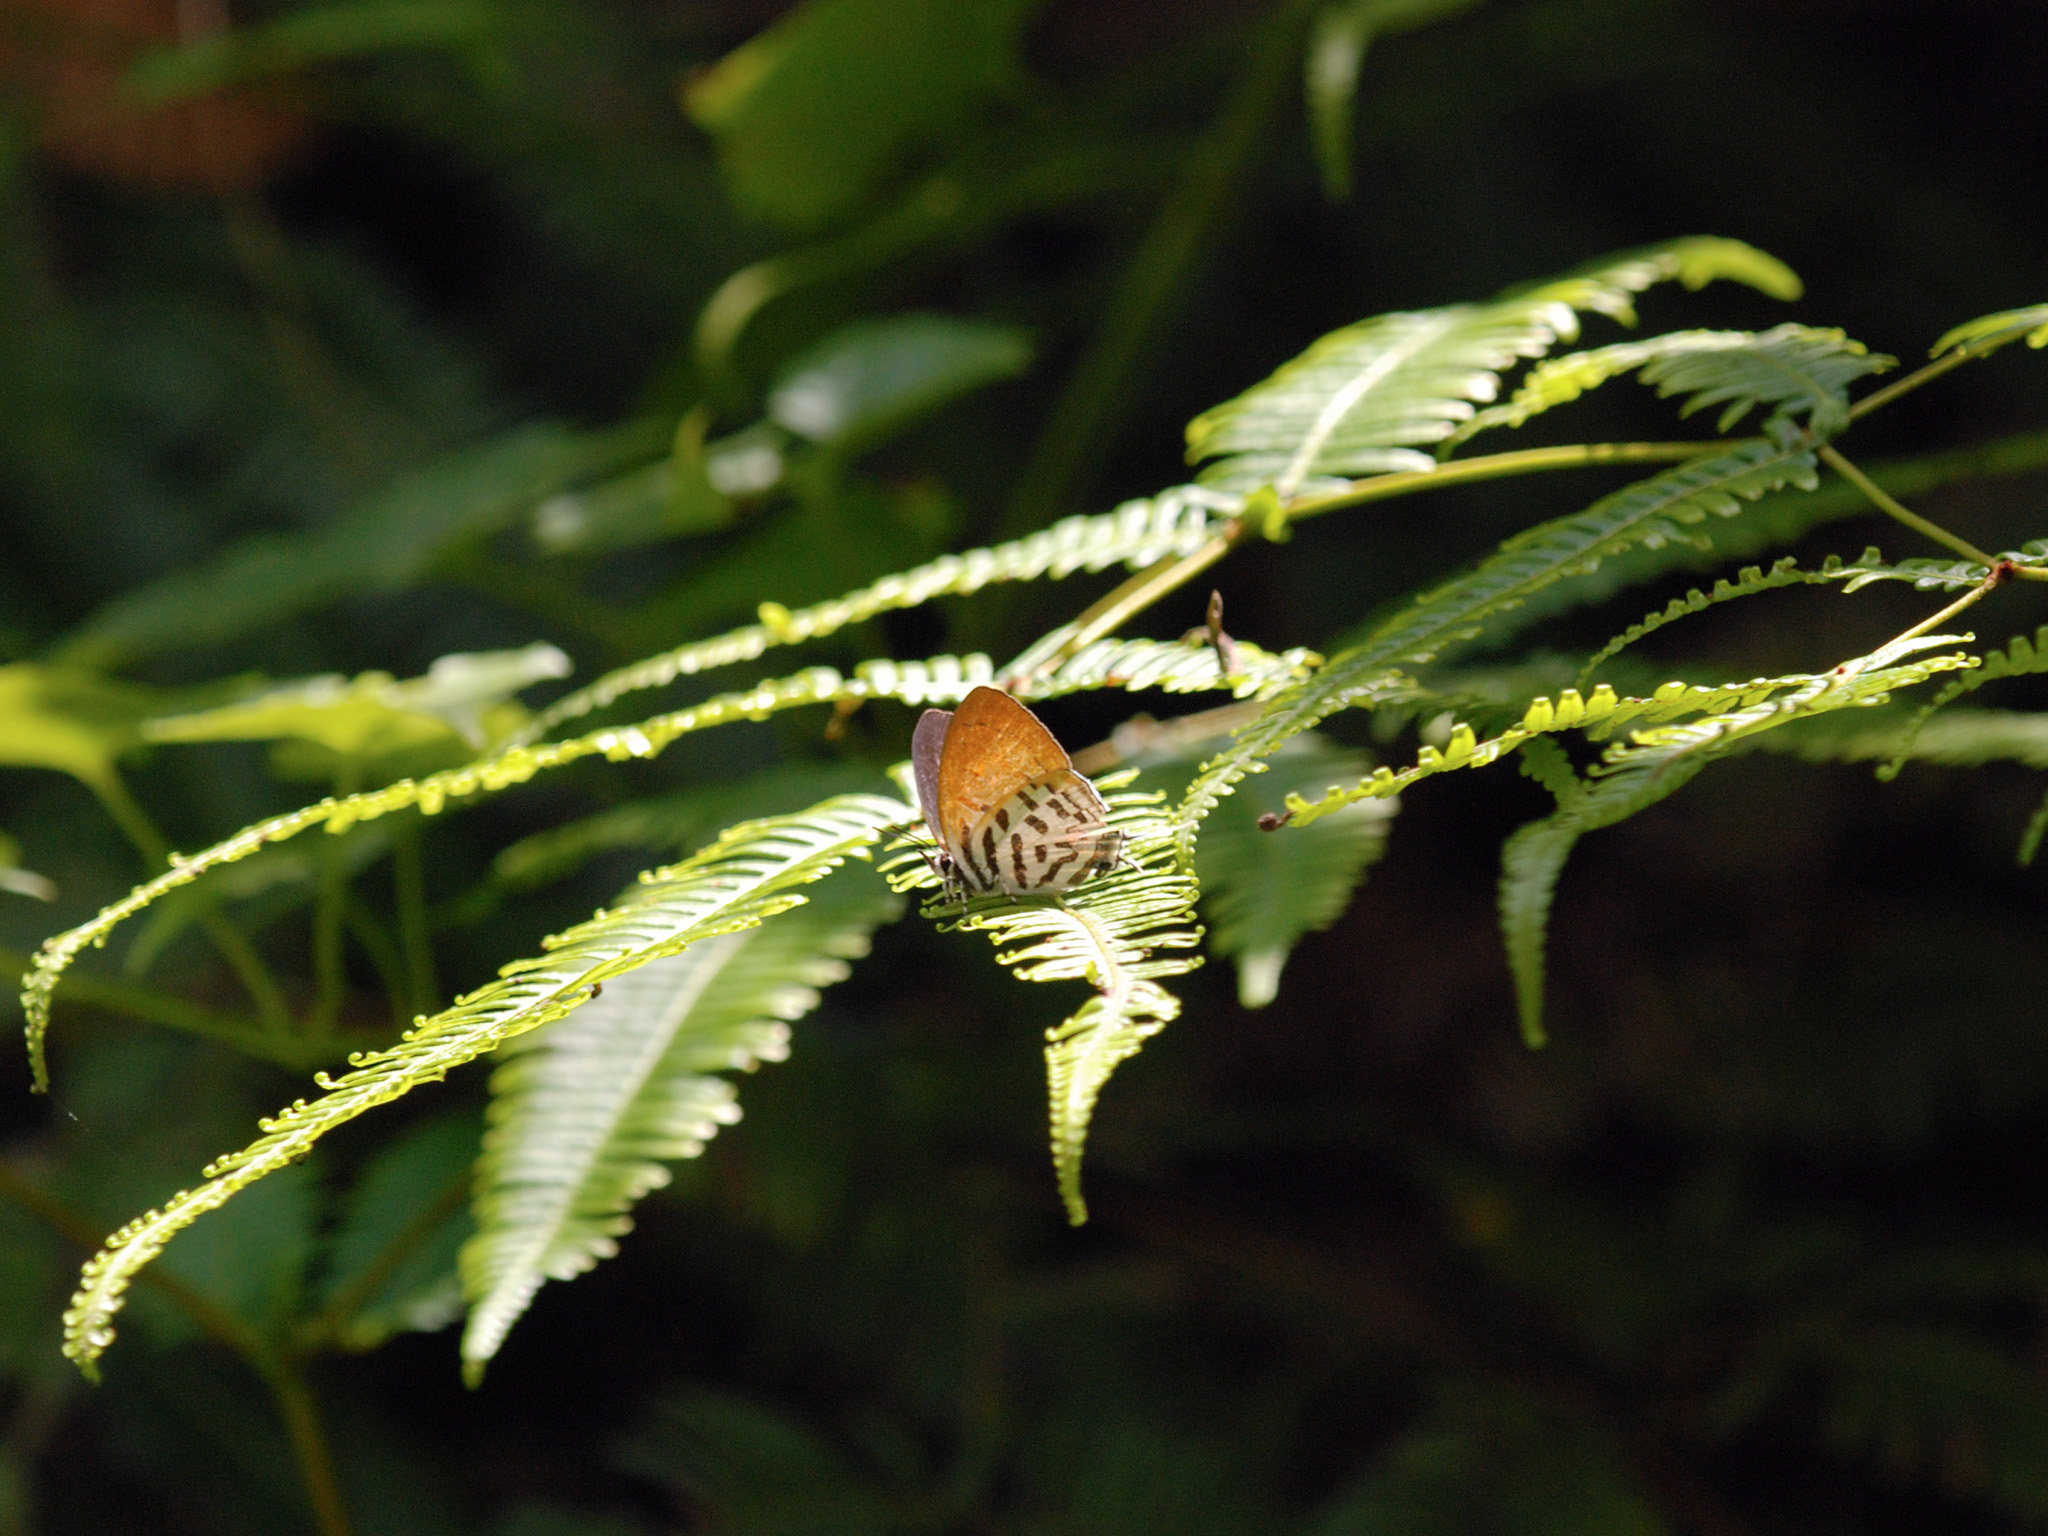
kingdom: Animalia
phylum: Arthropoda
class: Insecta
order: Lepidoptera
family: Lycaenidae
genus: Drupadia
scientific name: Drupadia ravindra
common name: Common posy
